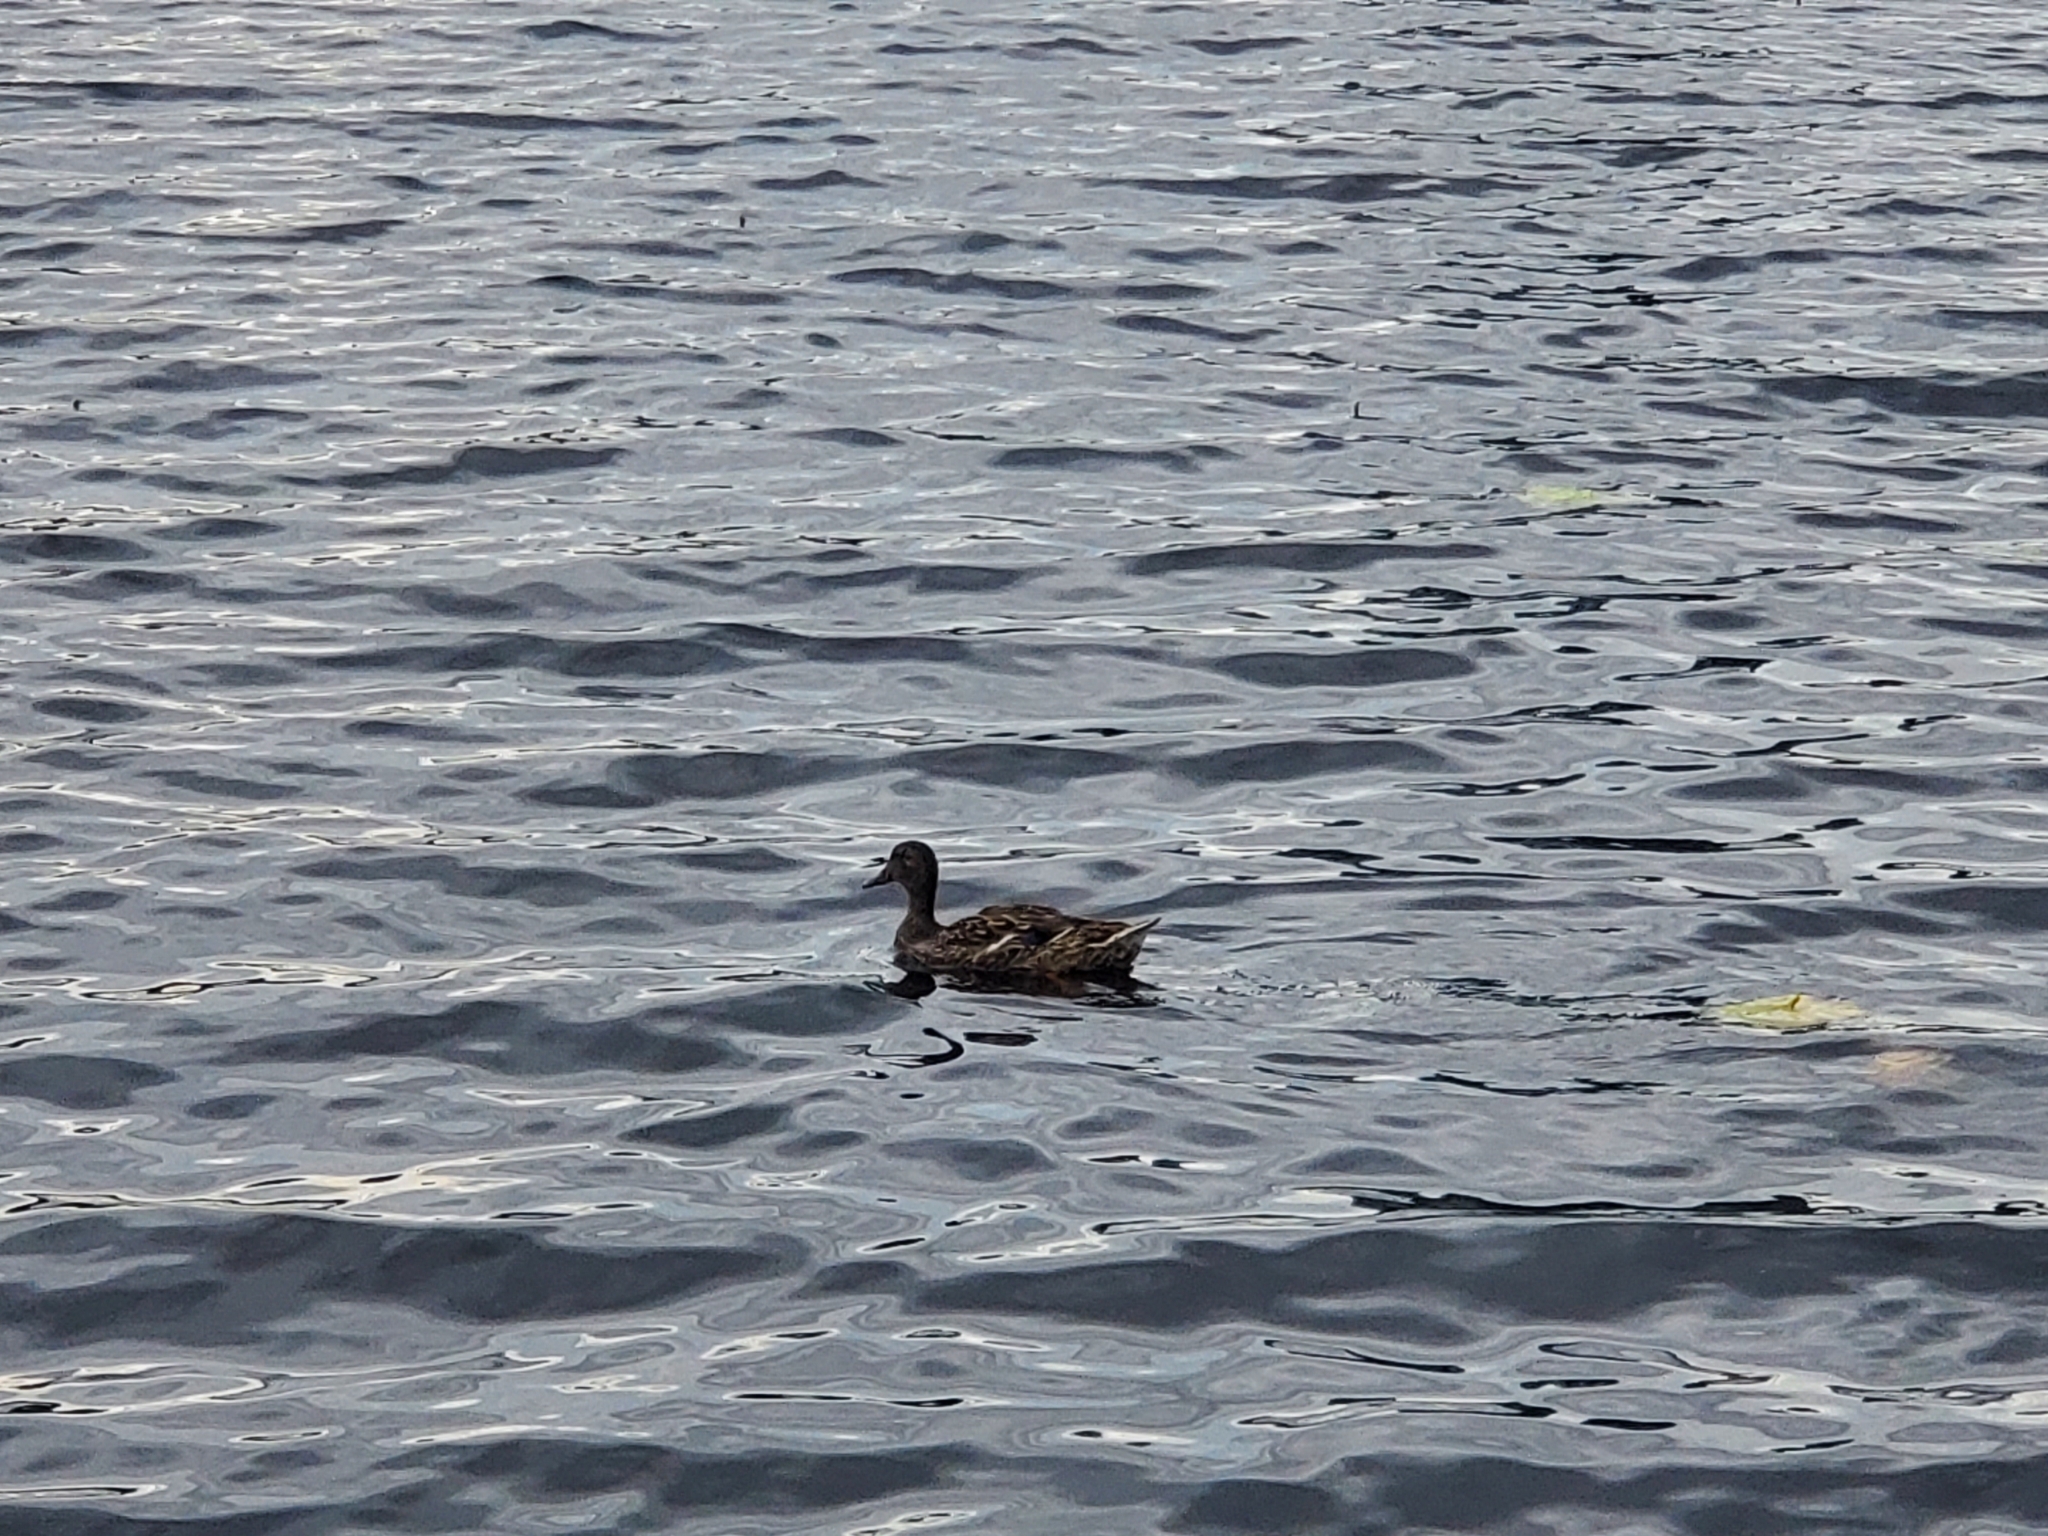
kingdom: Animalia
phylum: Chordata
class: Aves
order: Anseriformes
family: Anatidae
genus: Anas
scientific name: Anas platyrhynchos
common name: Mallard
